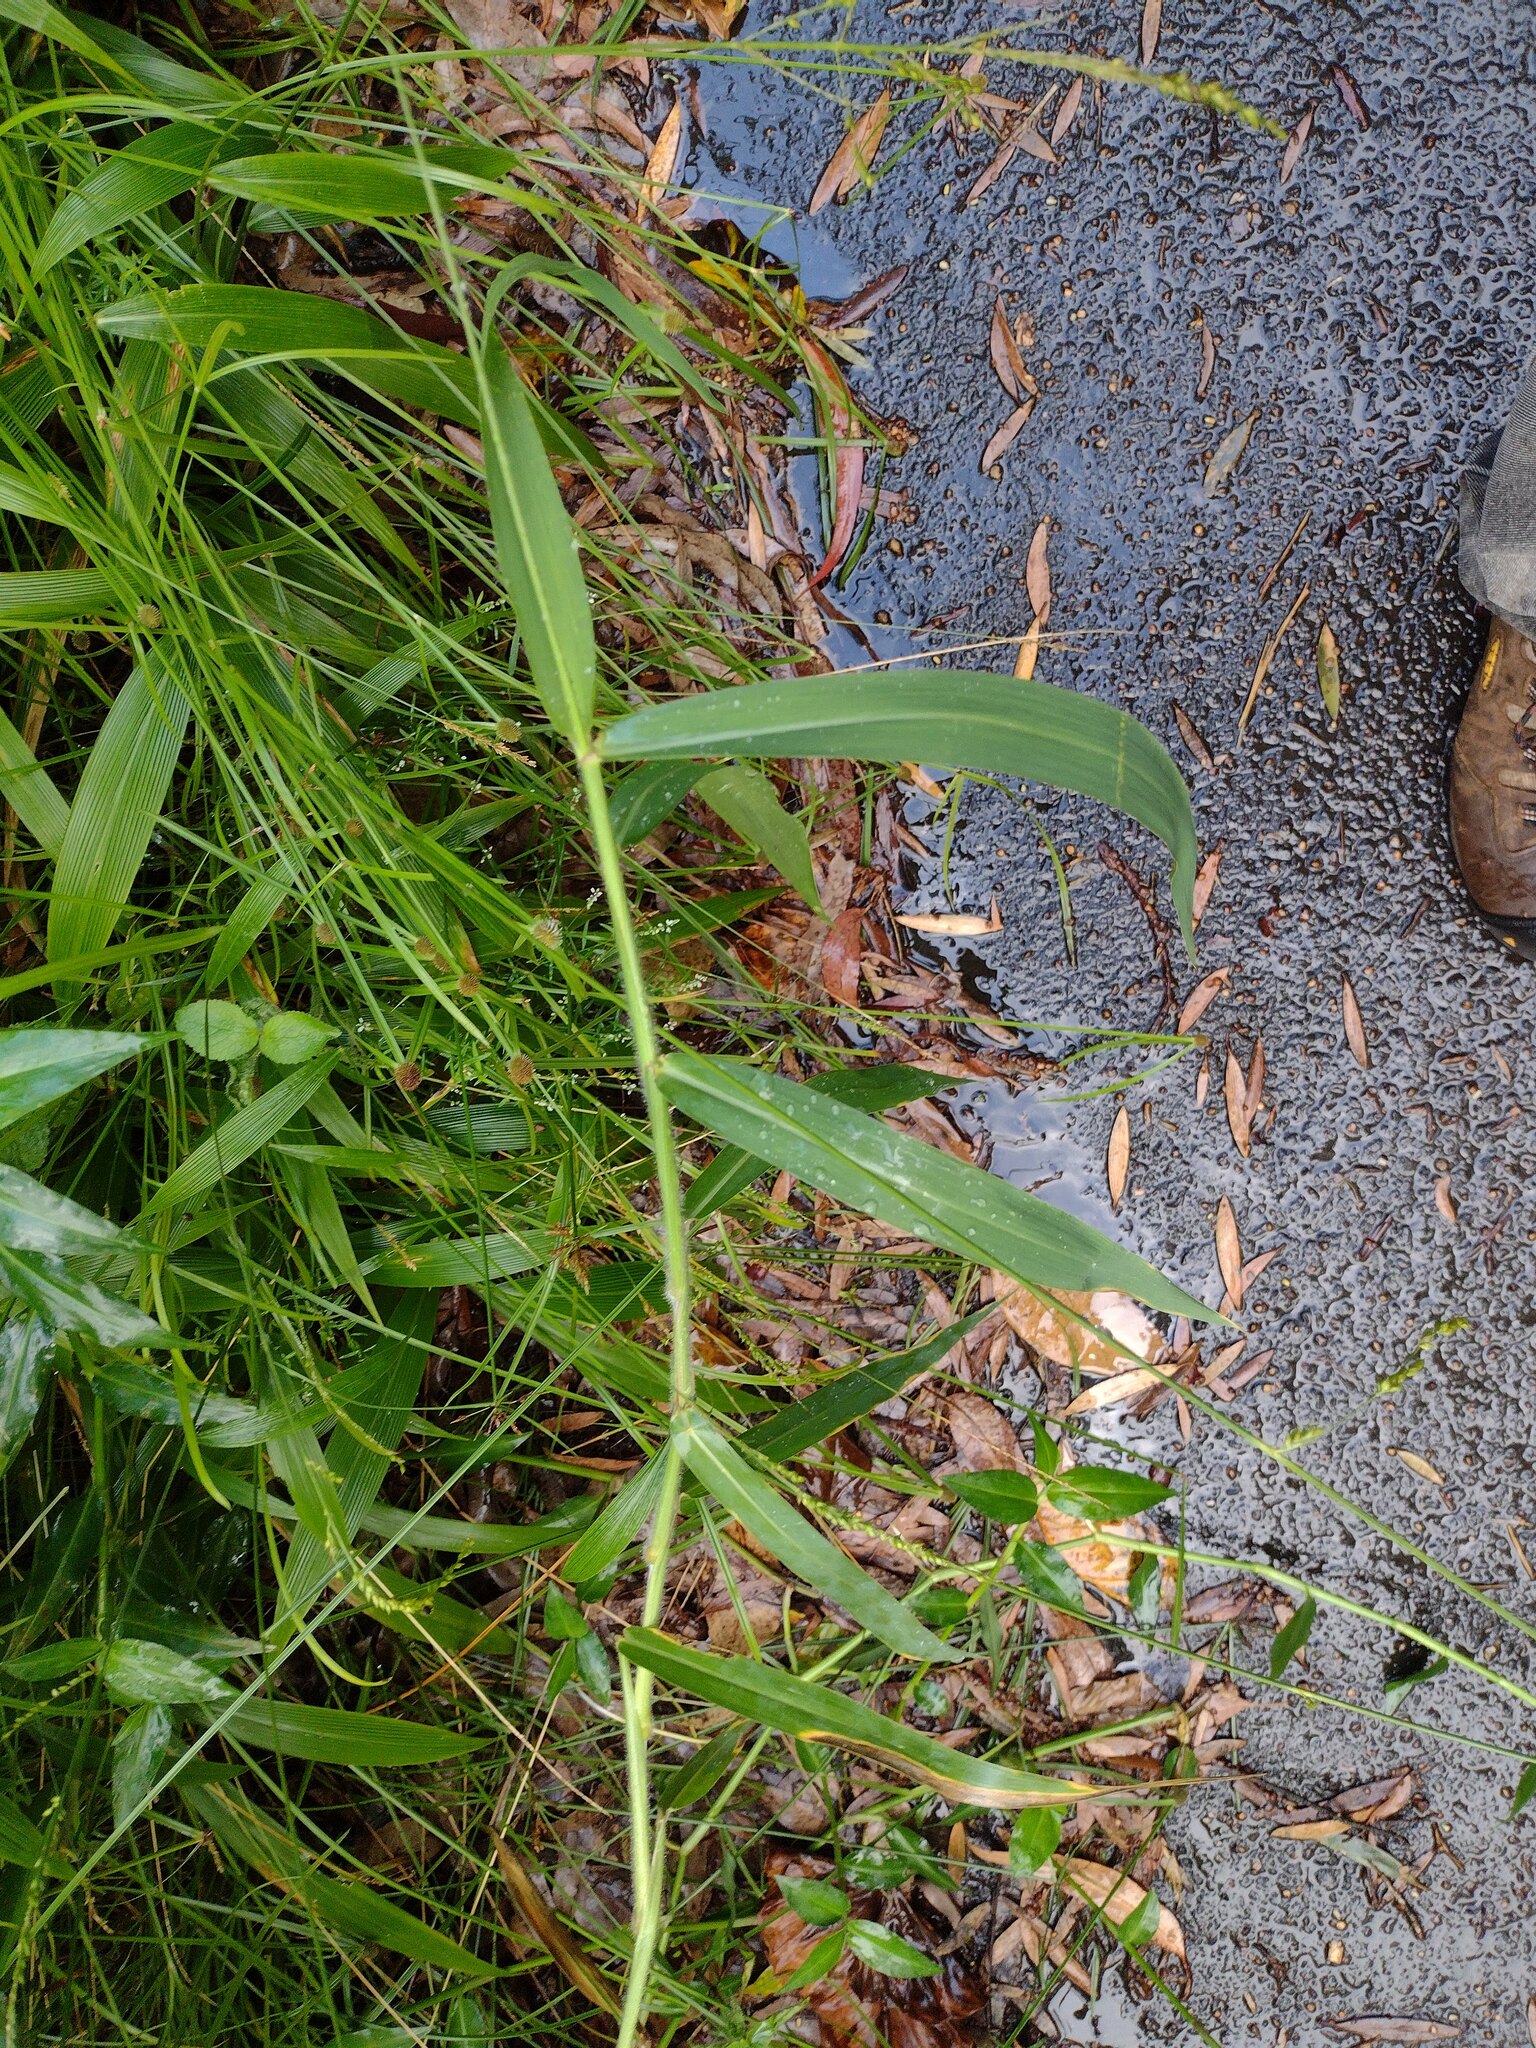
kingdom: Plantae
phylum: Tracheophyta
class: Liliopsida
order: Poales
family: Poaceae
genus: Urochloa
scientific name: Urochloa mutica
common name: Para grass
